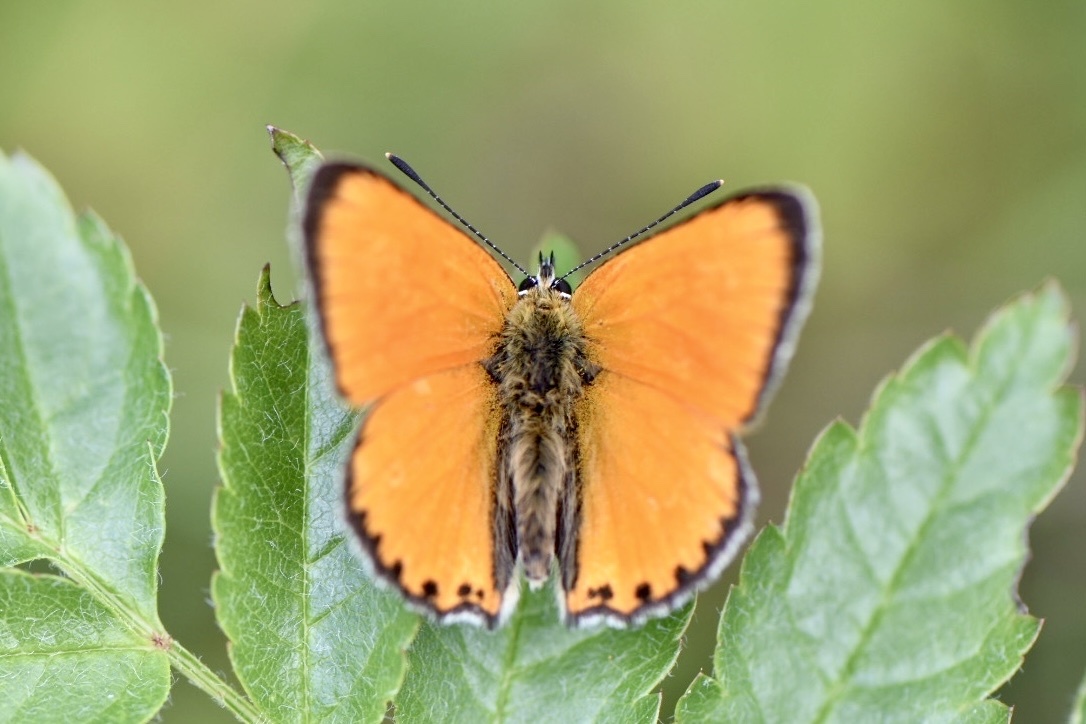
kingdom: Animalia
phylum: Arthropoda
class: Insecta
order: Lepidoptera
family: Lycaenidae
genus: Lycaena
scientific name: Lycaena virgaureae
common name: Scarce copper
